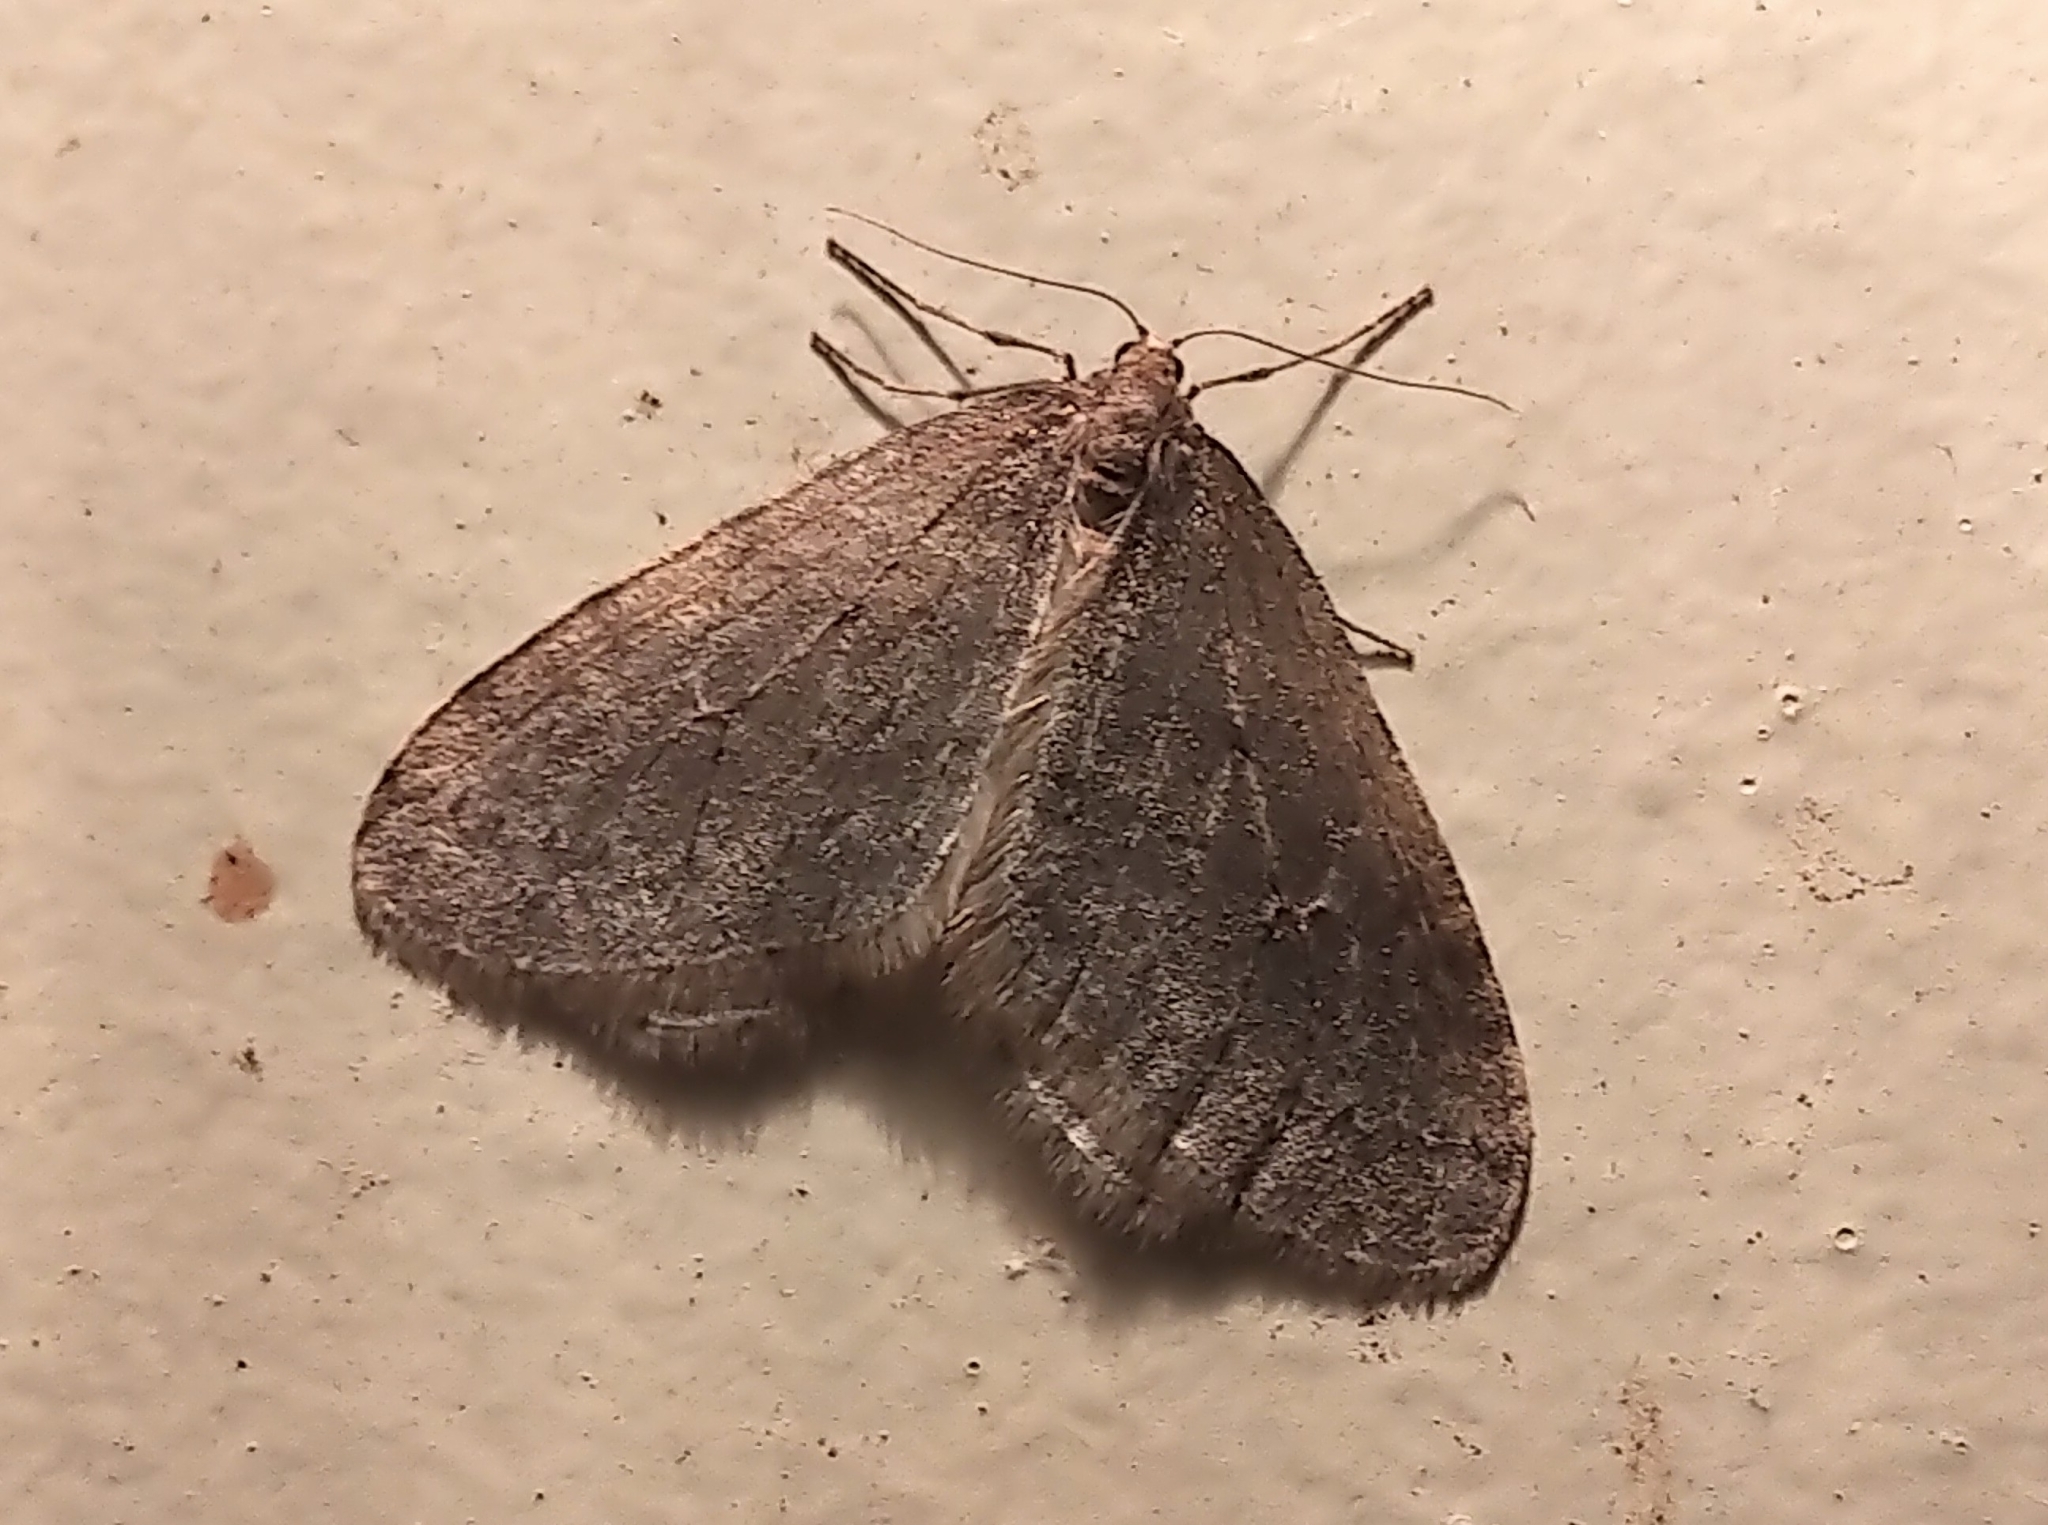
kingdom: Animalia
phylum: Arthropoda
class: Insecta
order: Lepidoptera
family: Geometridae
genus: Operophtera
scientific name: Operophtera bruceata
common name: Bruce spanworm
